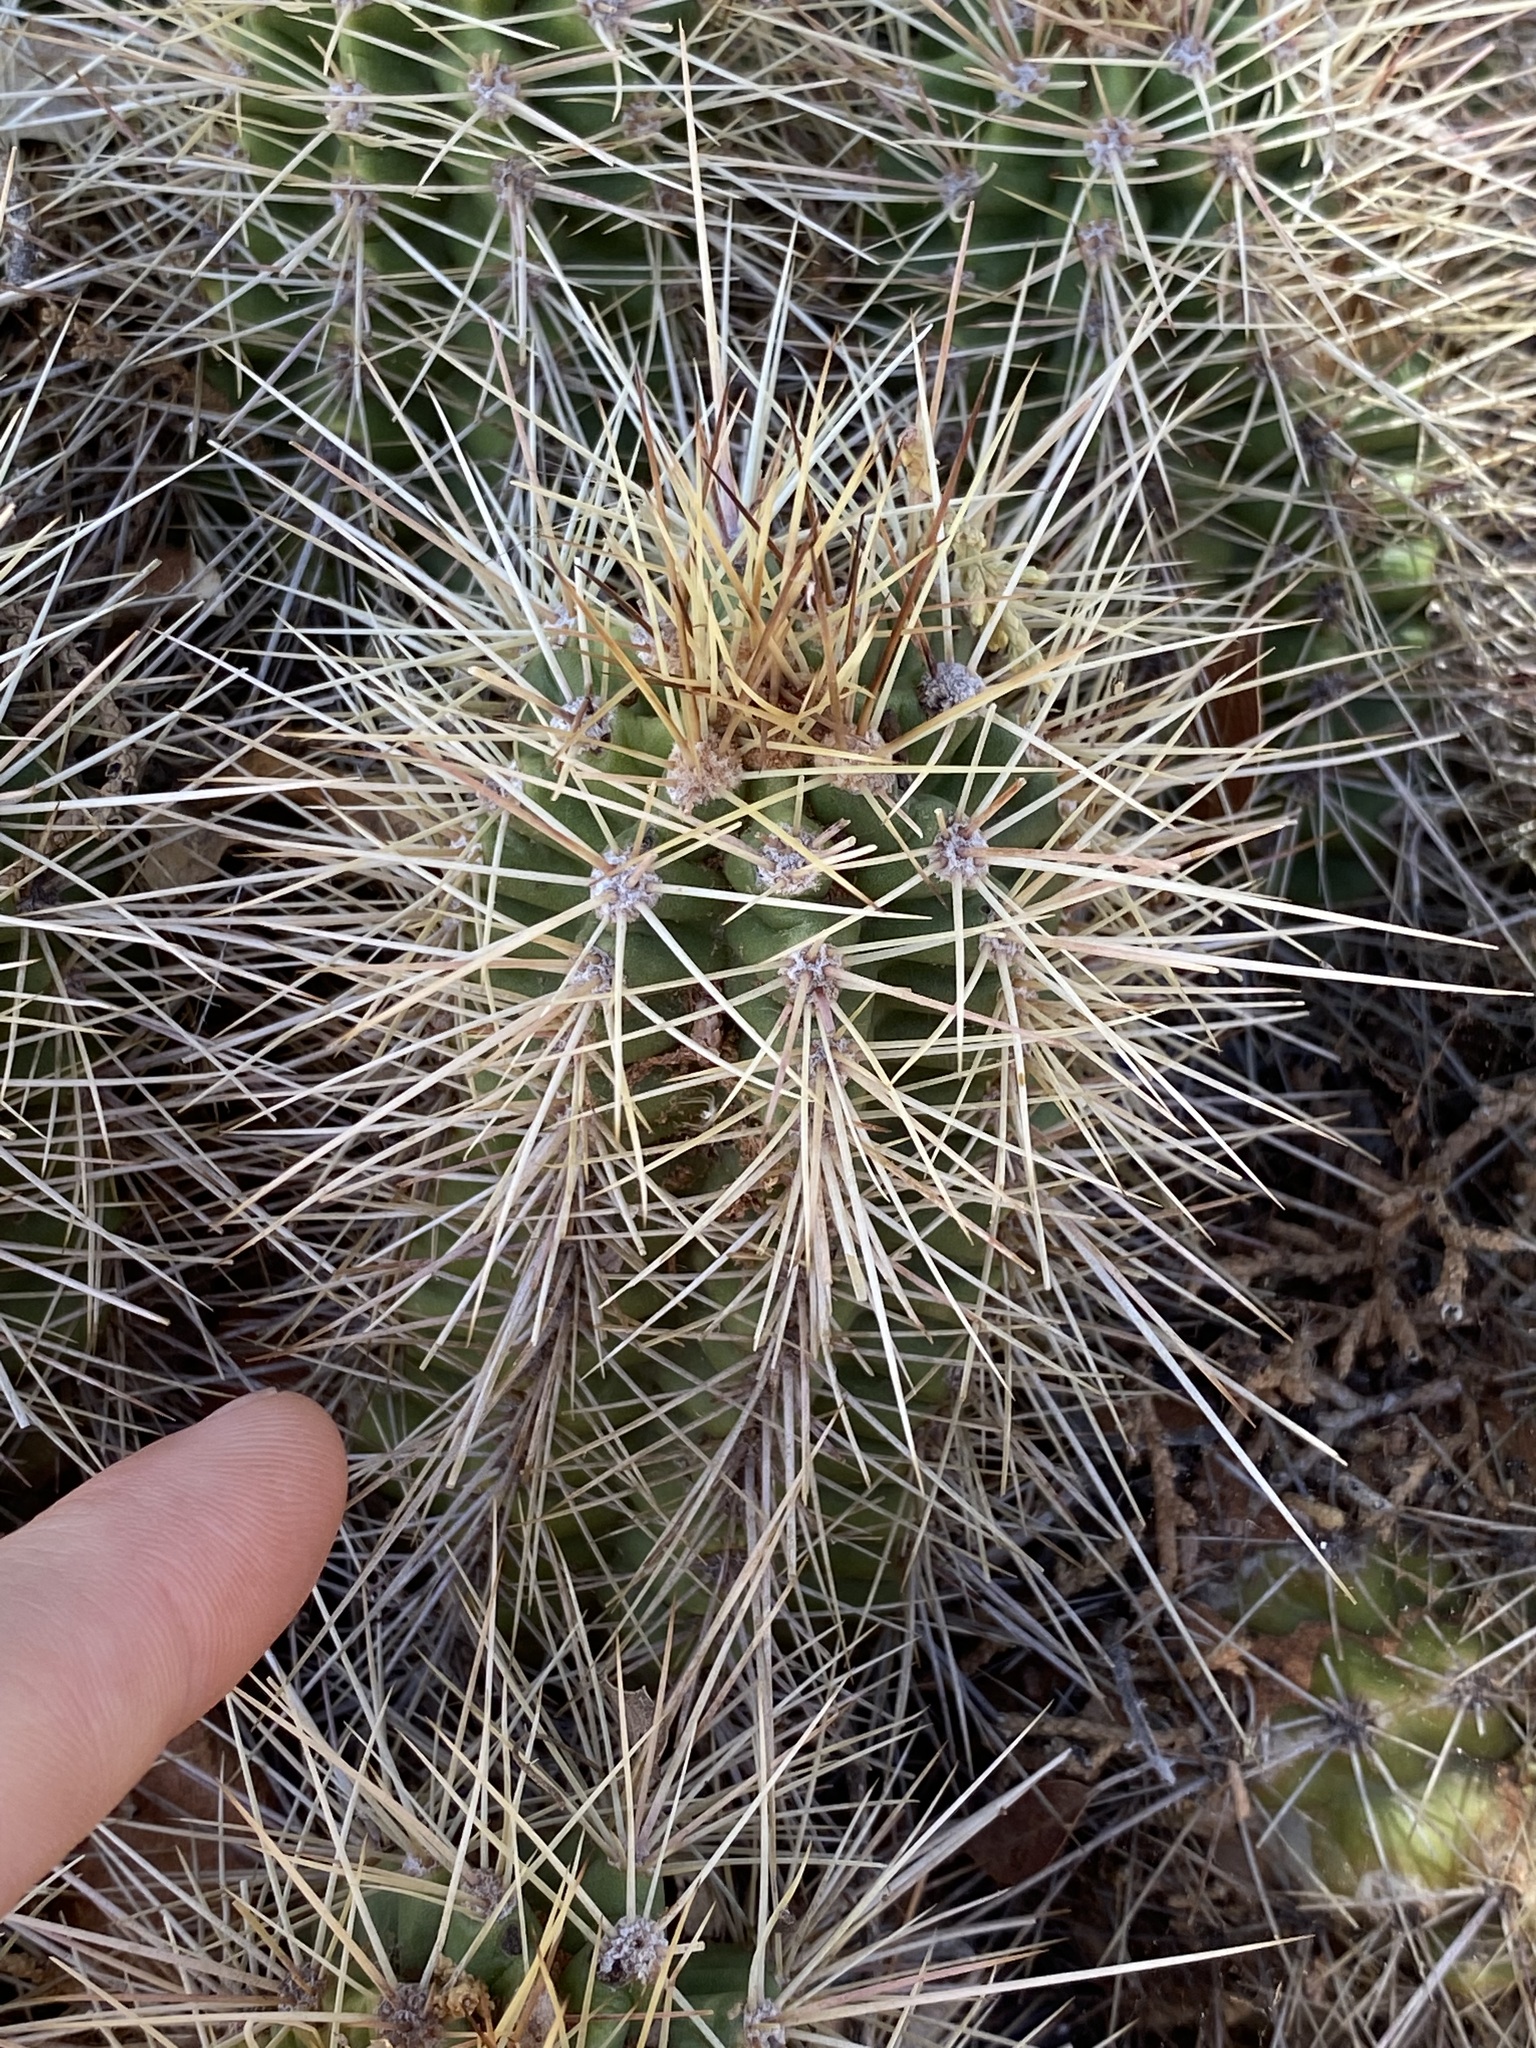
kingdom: Plantae
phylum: Tracheophyta
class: Magnoliopsida
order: Caryophyllales
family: Cactaceae
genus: Echinocereus
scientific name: Echinocereus bakeri
